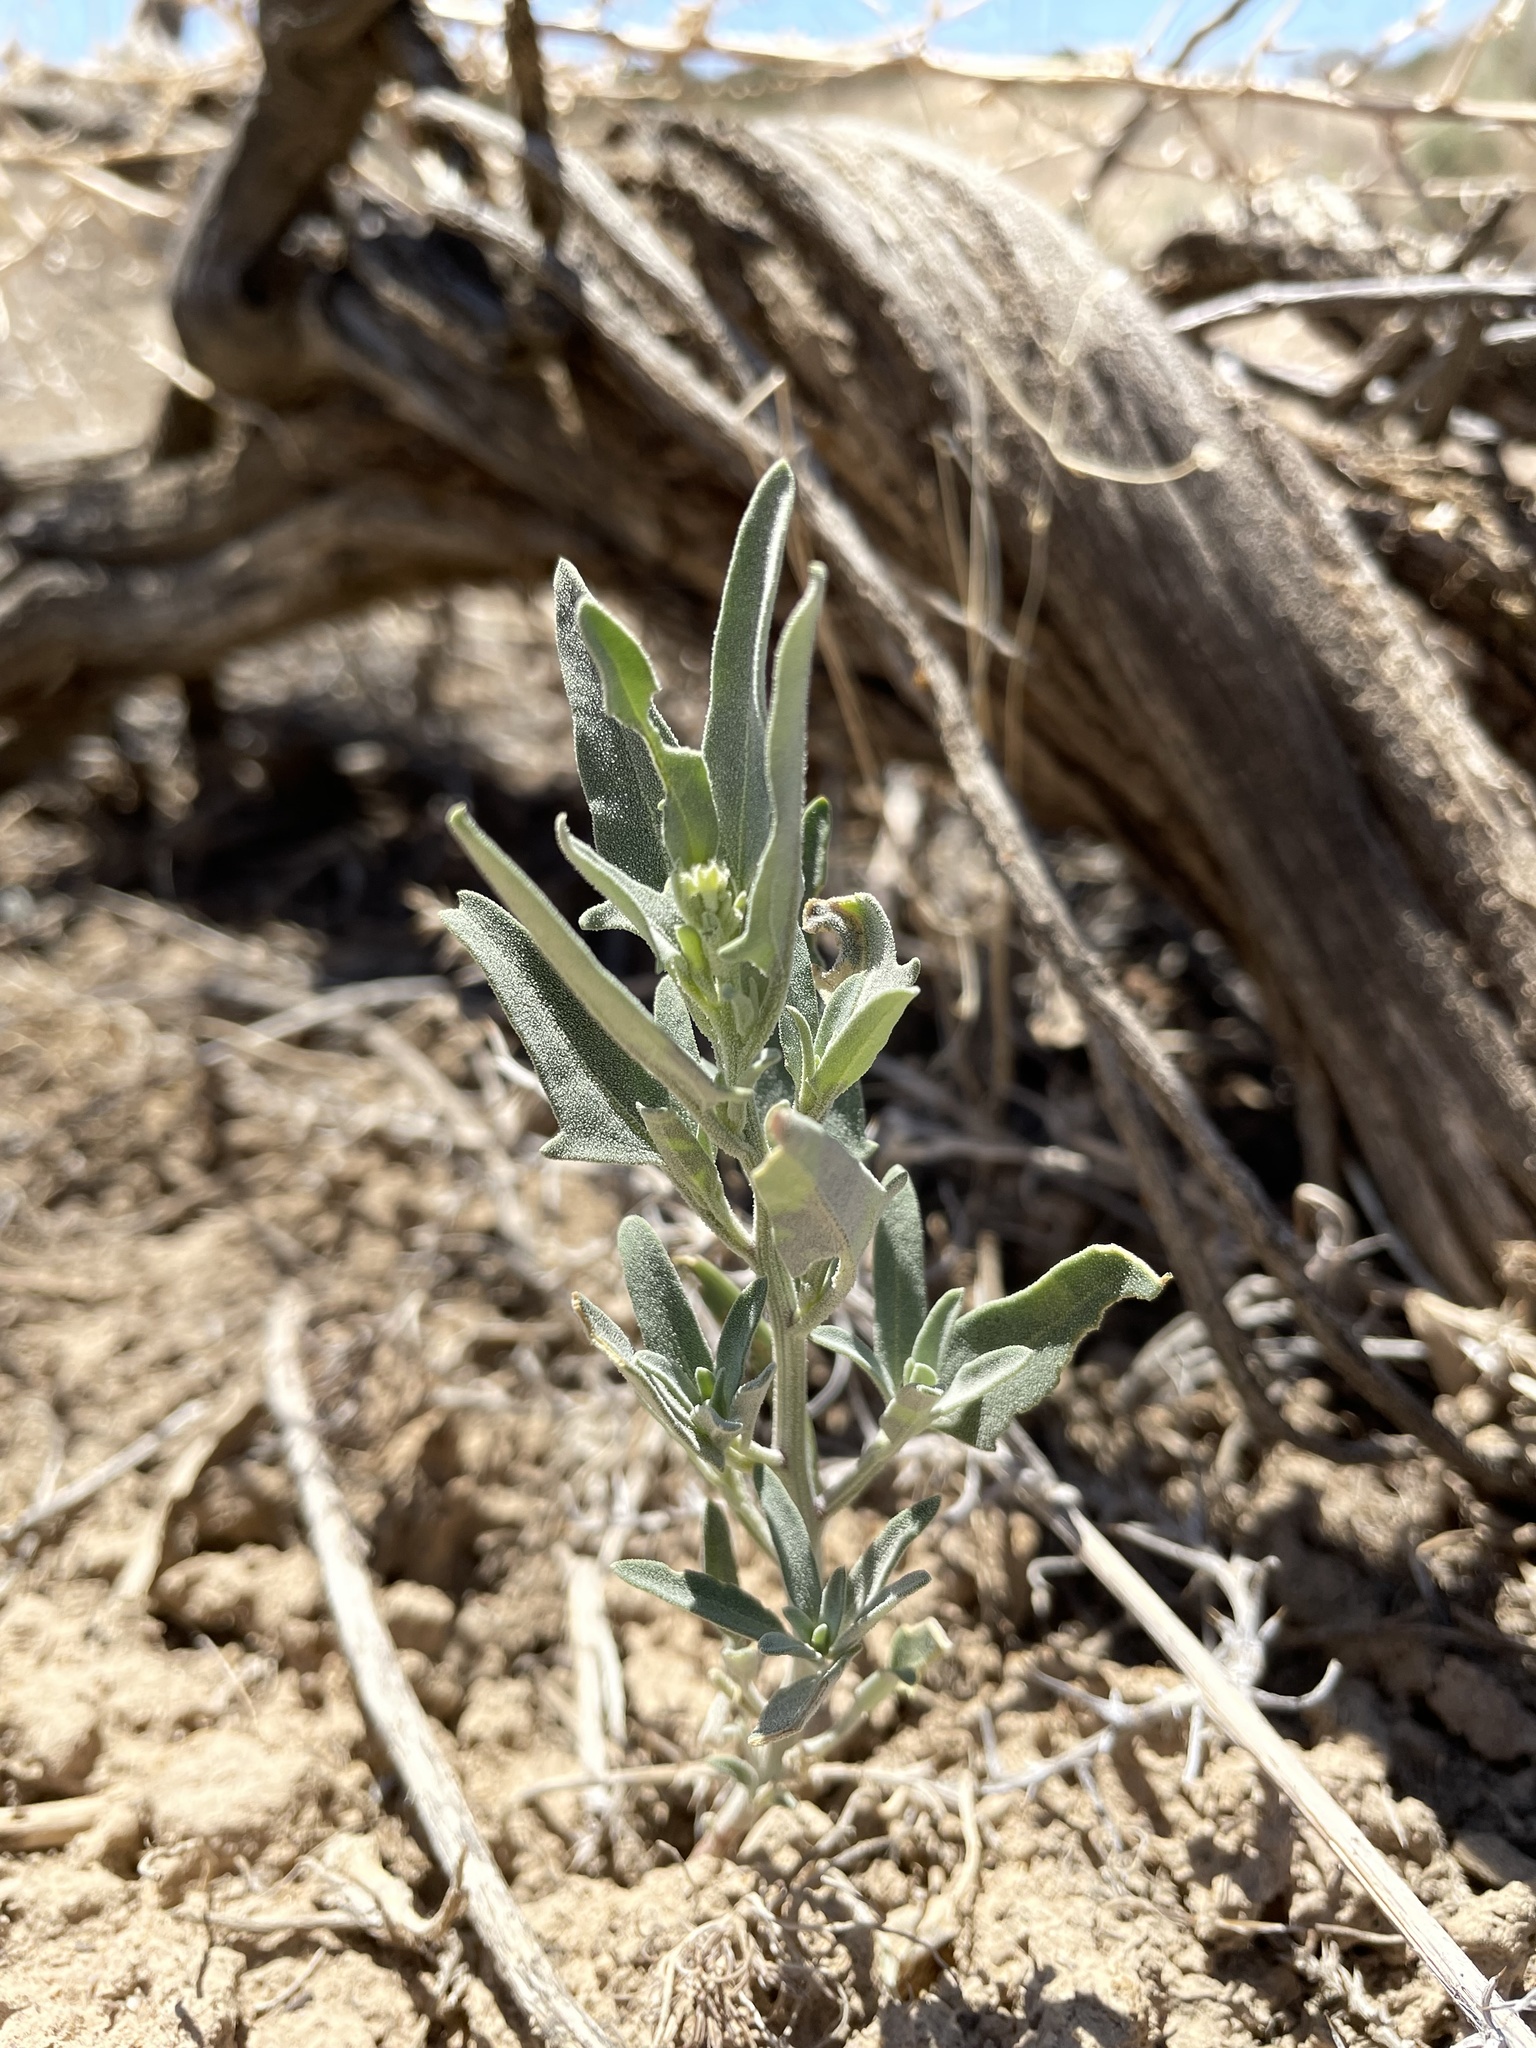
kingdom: Plantae
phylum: Tracheophyta
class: Magnoliopsida
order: Caryophyllales
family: Amaranthaceae
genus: Chenopodium
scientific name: Chenopodium incanum
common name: Hoary goosefoot
